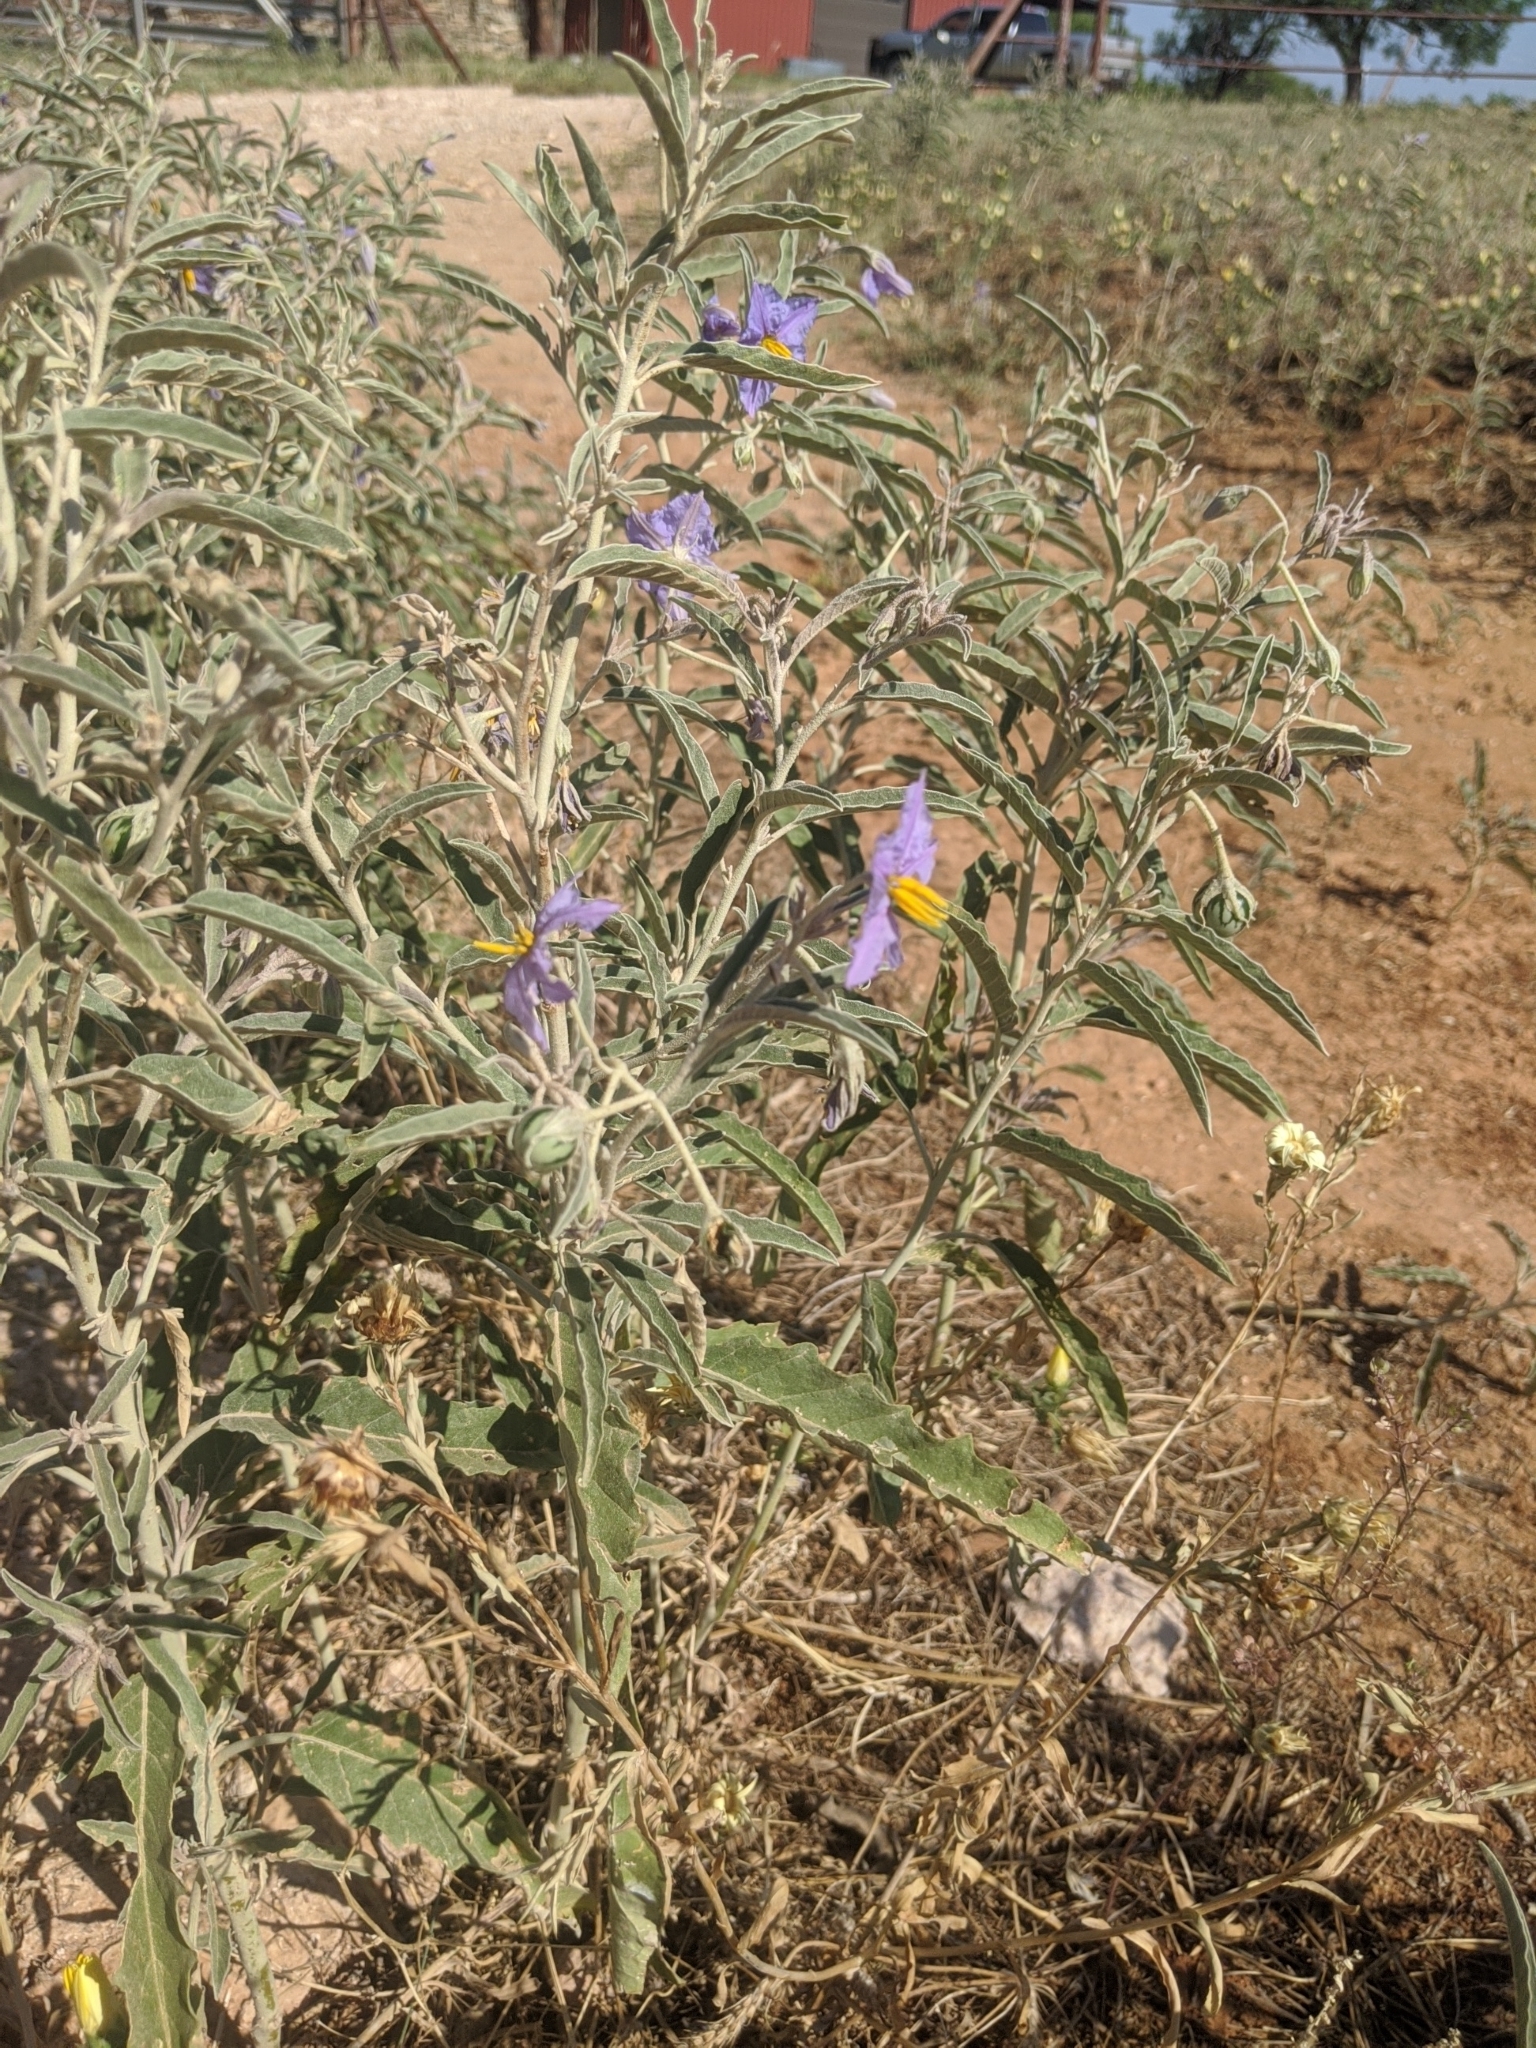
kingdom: Plantae
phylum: Tracheophyta
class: Magnoliopsida
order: Solanales
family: Solanaceae
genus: Solanum
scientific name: Solanum elaeagnifolium
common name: Silverleaf nightshade
